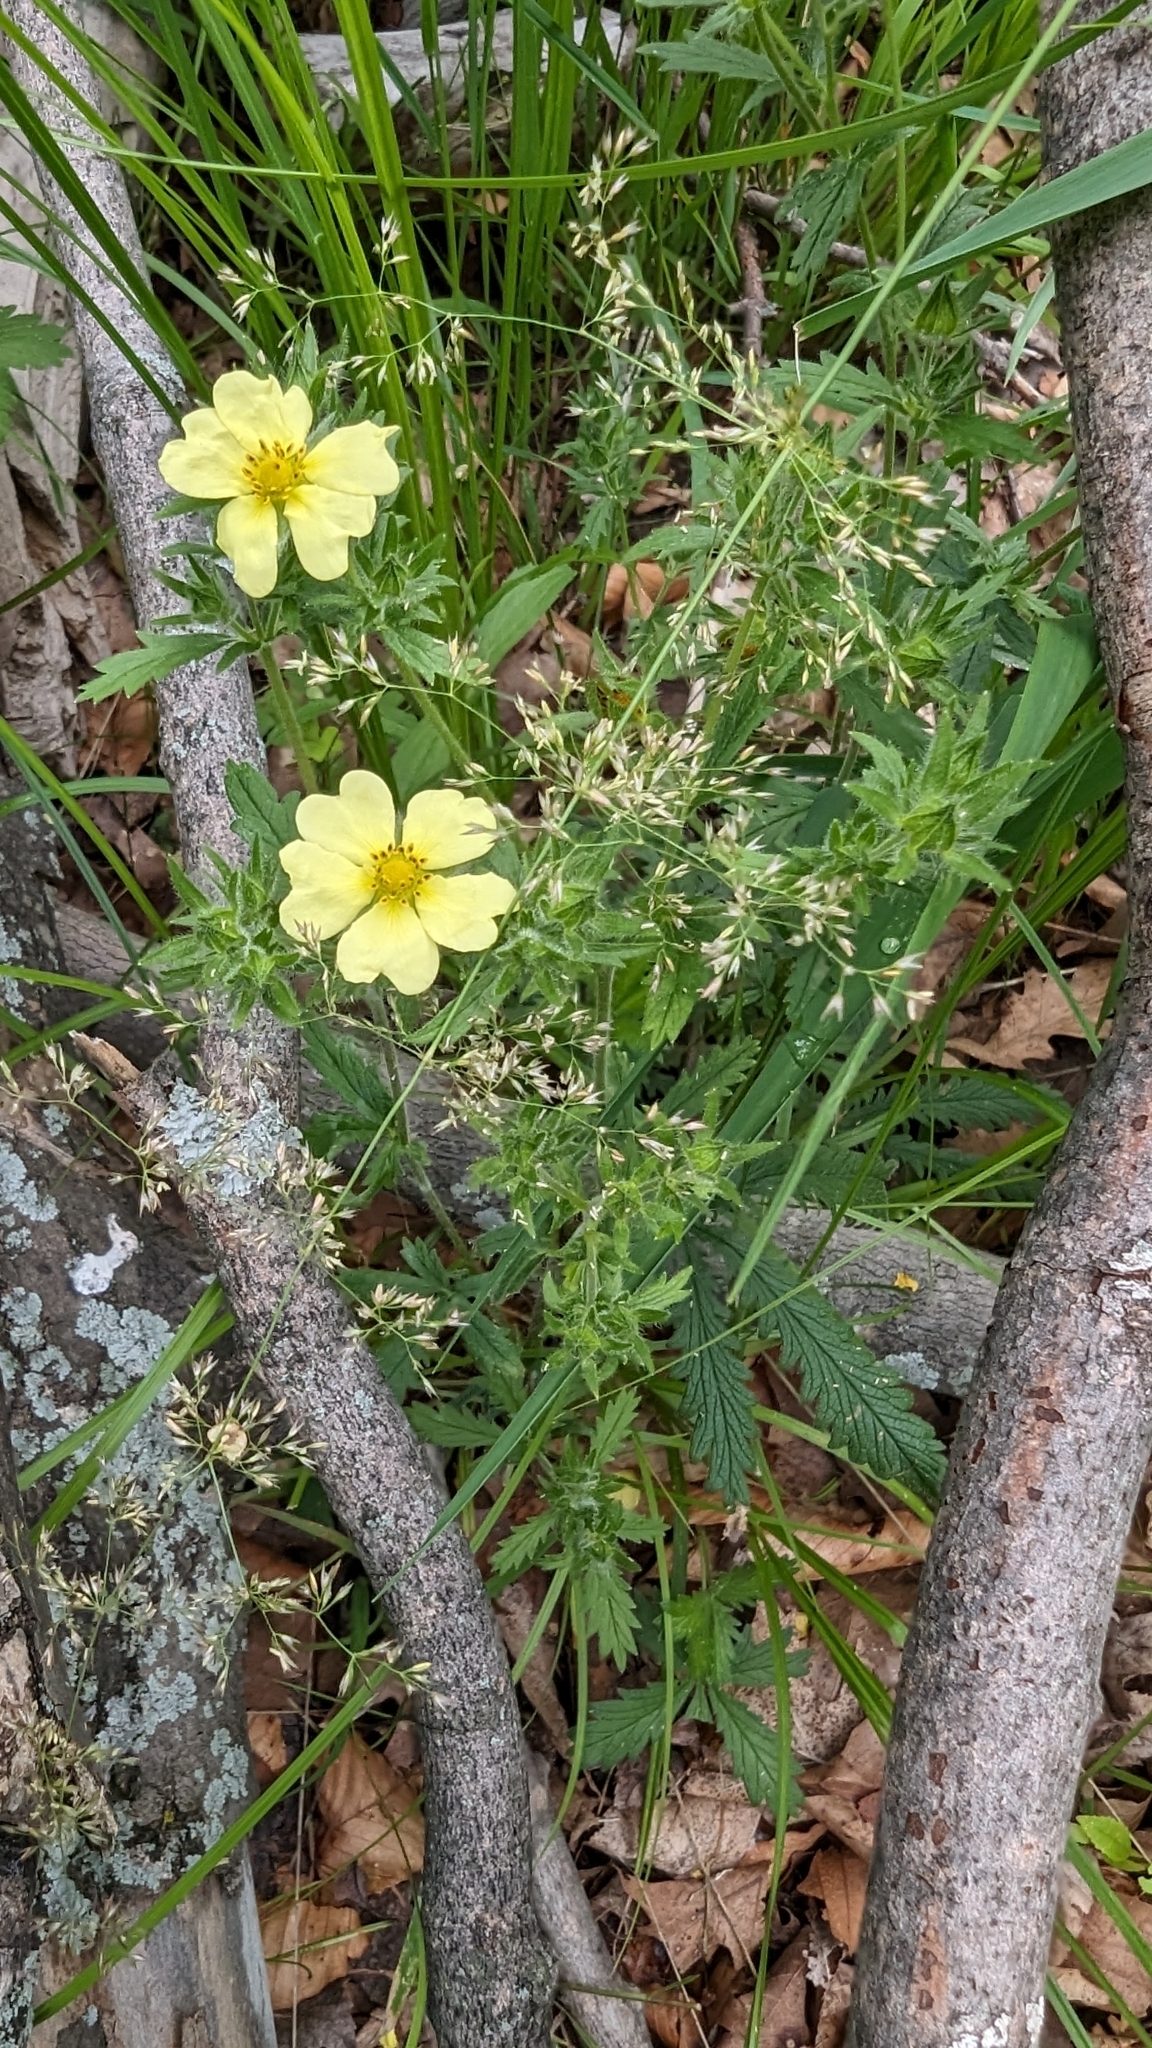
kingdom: Plantae
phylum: Tracheophyta
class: Magnoliopsida
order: Rosales
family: Rosaceae
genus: Potentilla
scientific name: Potentilla recta
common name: Sulphur cinquefoil
